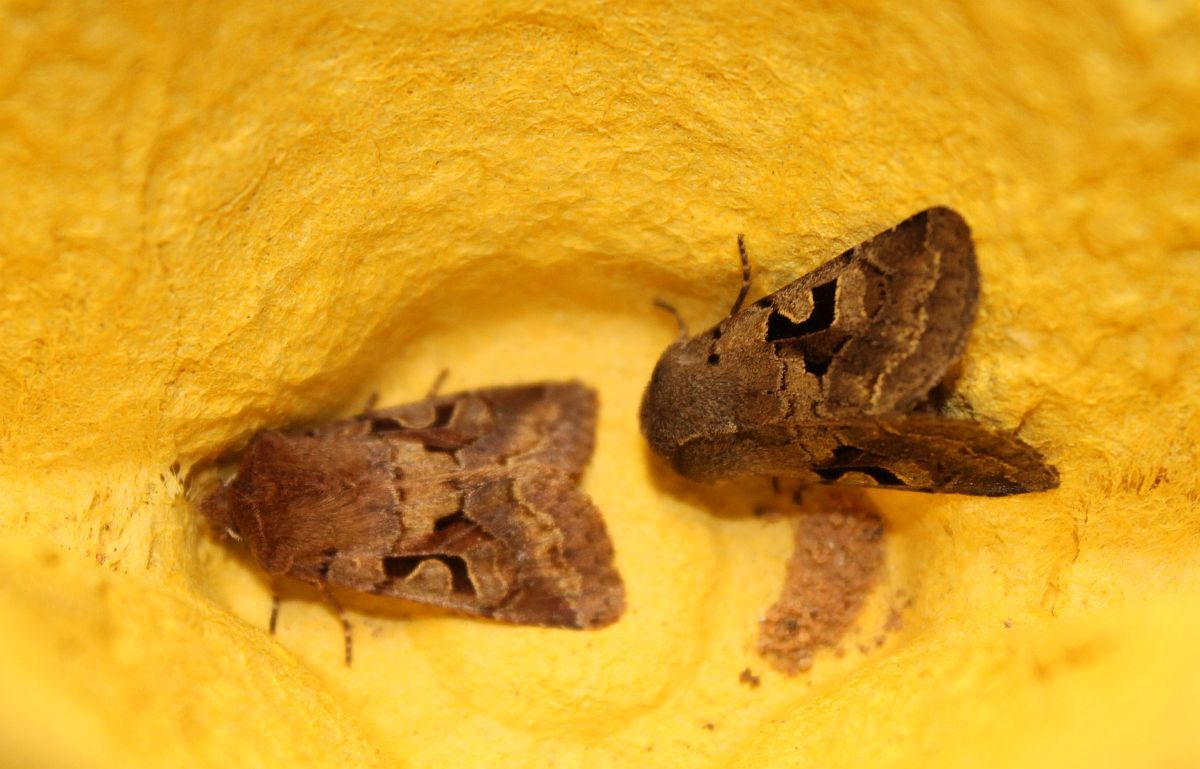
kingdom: Animalia
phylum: Arthropoda
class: Insecta
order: Lepidoptera
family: Noctuidae
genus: Orthosia
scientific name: Orthosia gothica
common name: Hebrew character
